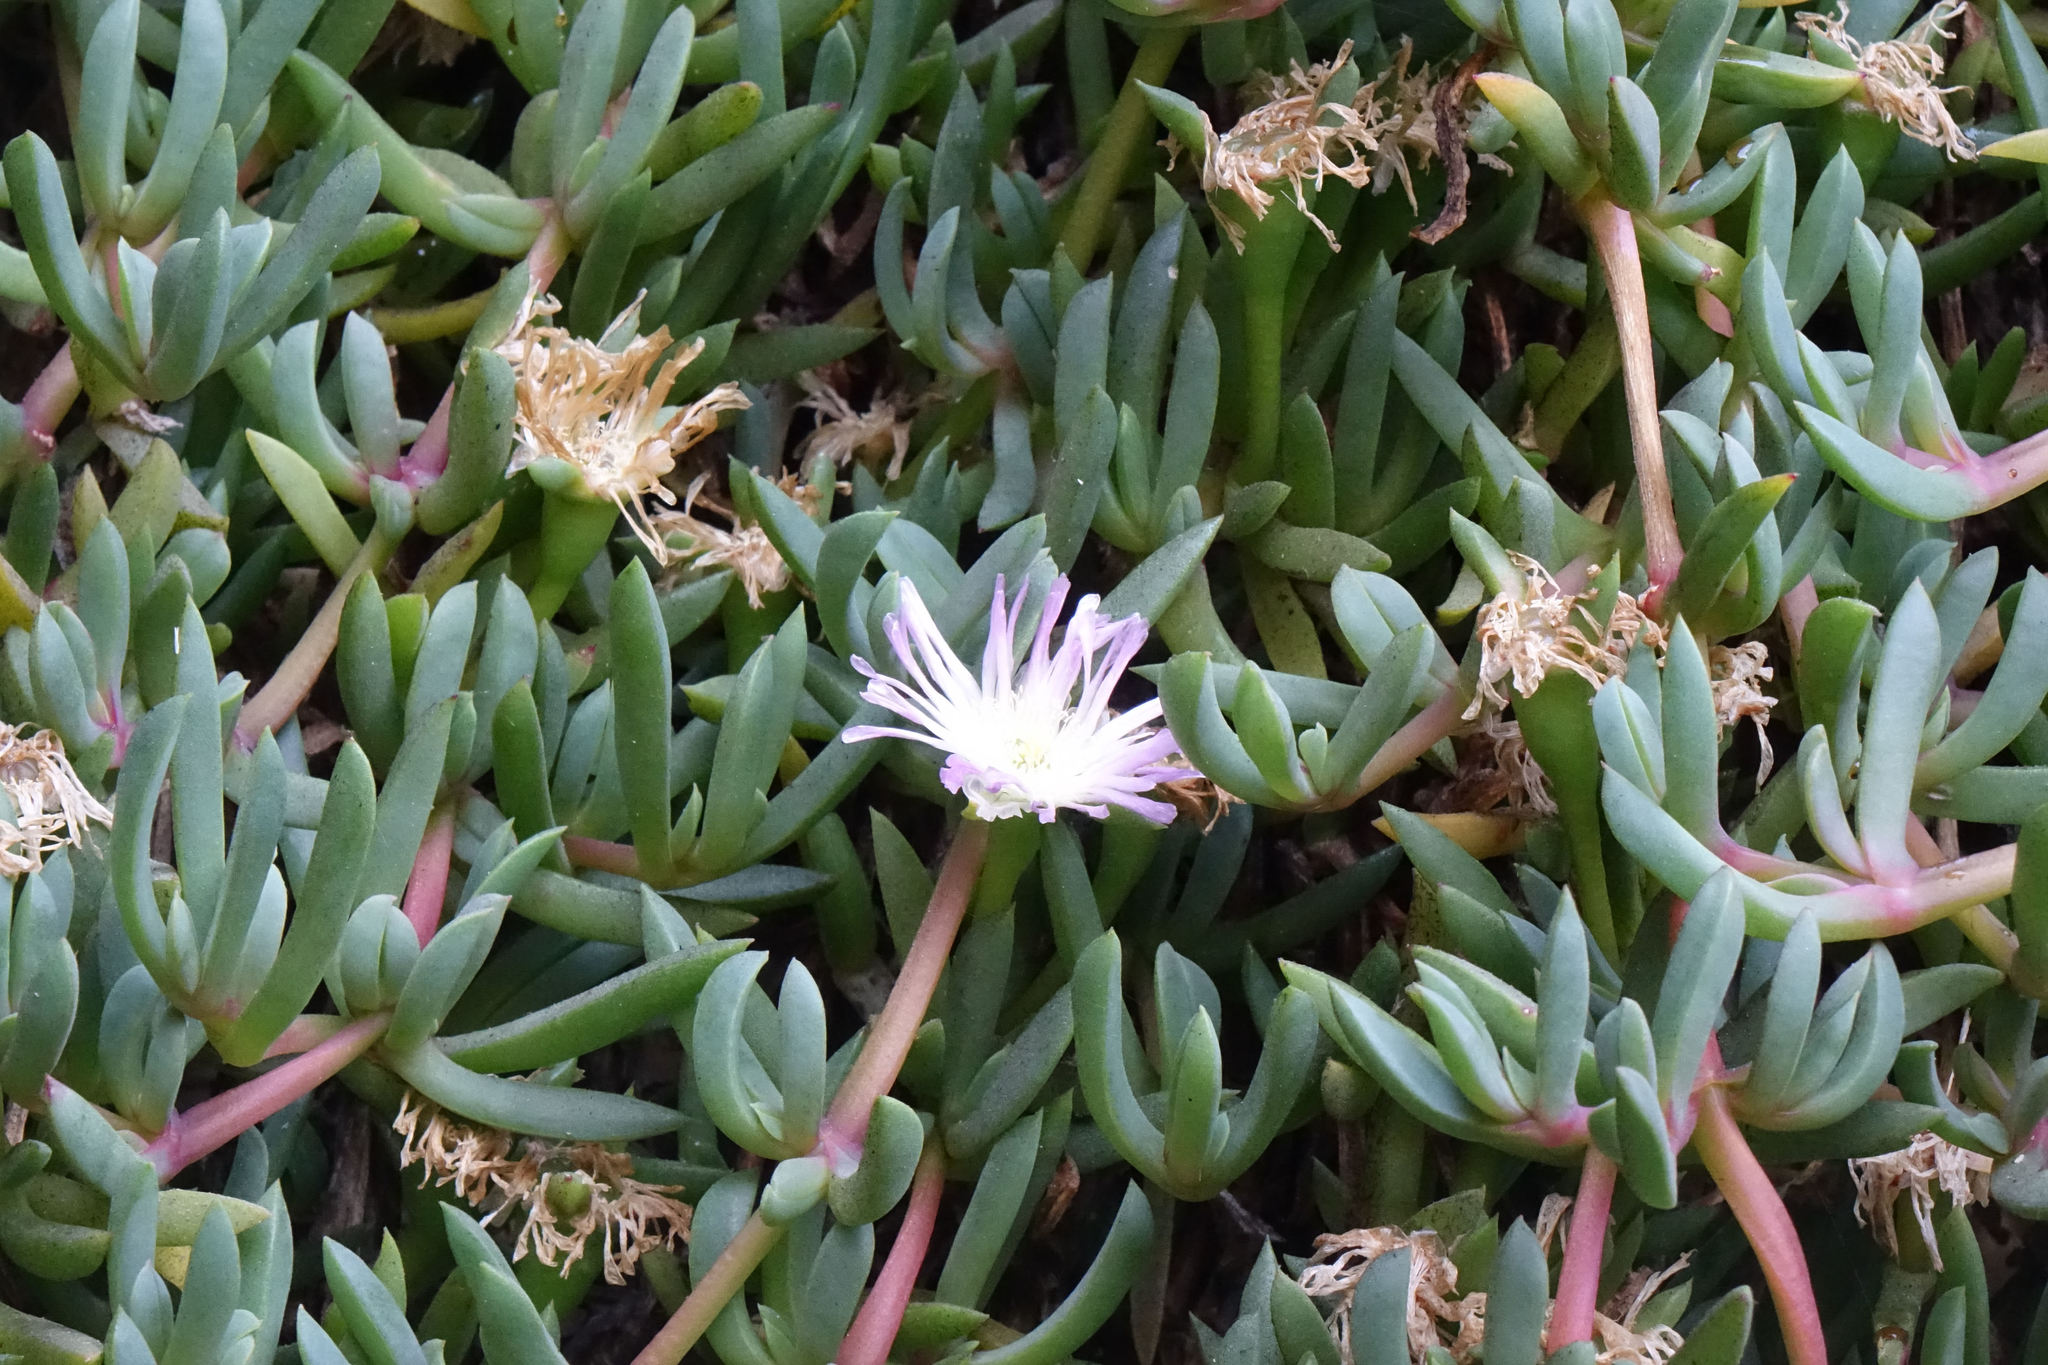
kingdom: Plantae
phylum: Tracheophyta
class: Magnoliopsida
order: Caryophyllales
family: Aizoaceae
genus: Disphyma
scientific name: Disphyma australe
